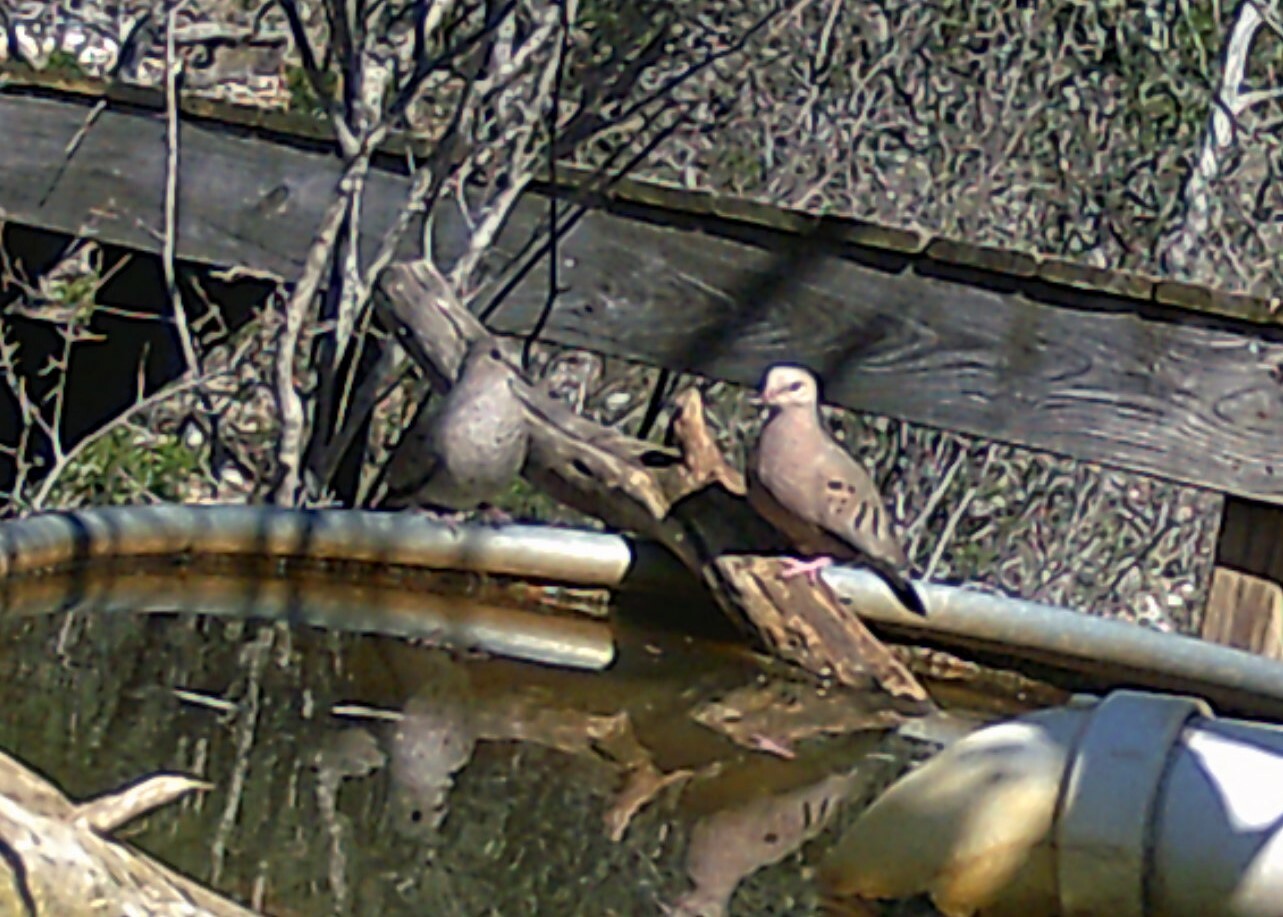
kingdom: Animalia
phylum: Chordata
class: Aves
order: Columbiformes
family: Columbidae
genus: Columbina
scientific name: Columbina passerina
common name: Common ground-dove
